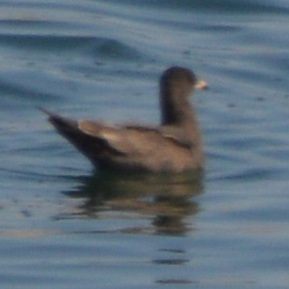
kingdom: Animalia
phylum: Chordata
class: Aves
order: Charadriiformes
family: Laridae
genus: Larus
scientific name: Larus heermanni
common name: Heermann's gull
